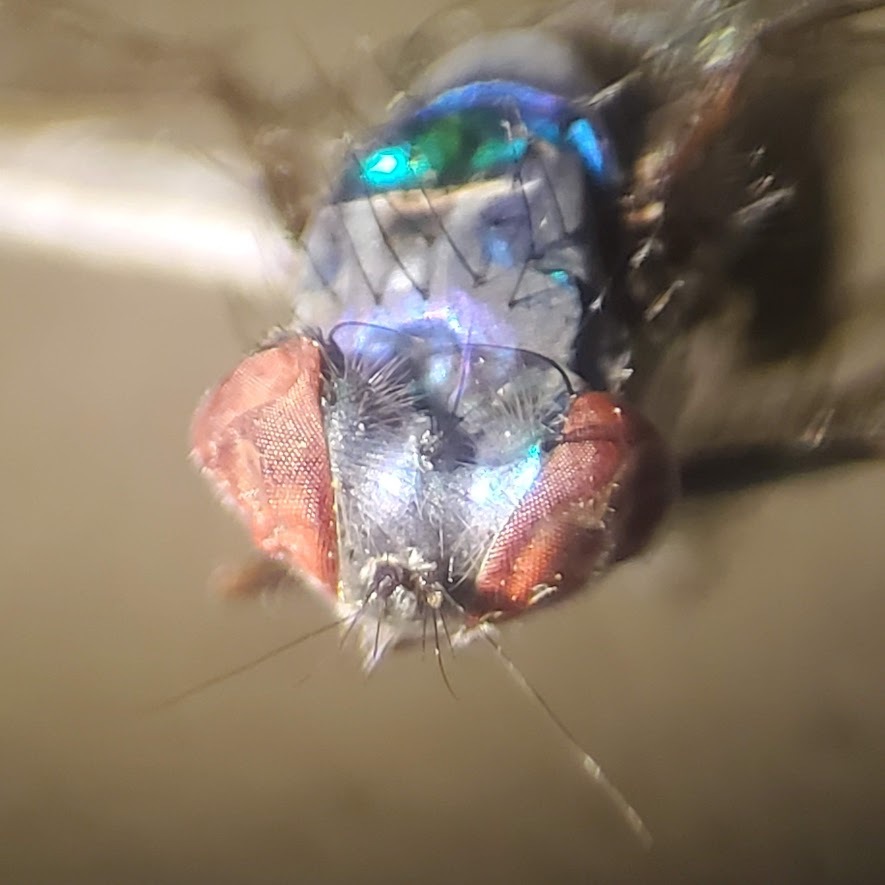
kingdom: Animalia
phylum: Arthropoda
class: Insecta
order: Diptera
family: Dolichopodidae
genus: Condylostylus
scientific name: Condylostylus pruinosus
